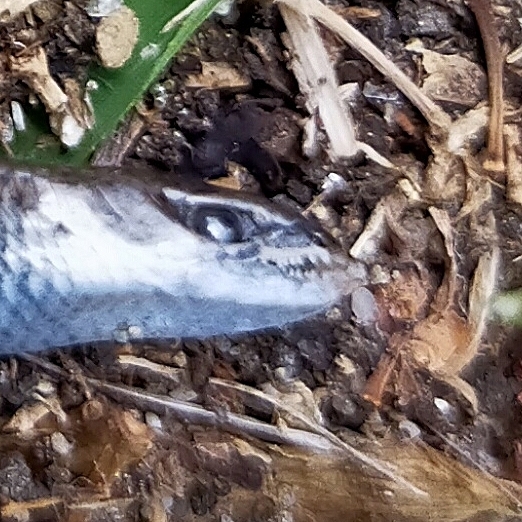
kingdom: Animalia
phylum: Chordata
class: Squamata
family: Scincidae
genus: Ablepharus
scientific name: Ablepharus kitaibelii
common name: Juniper skink
